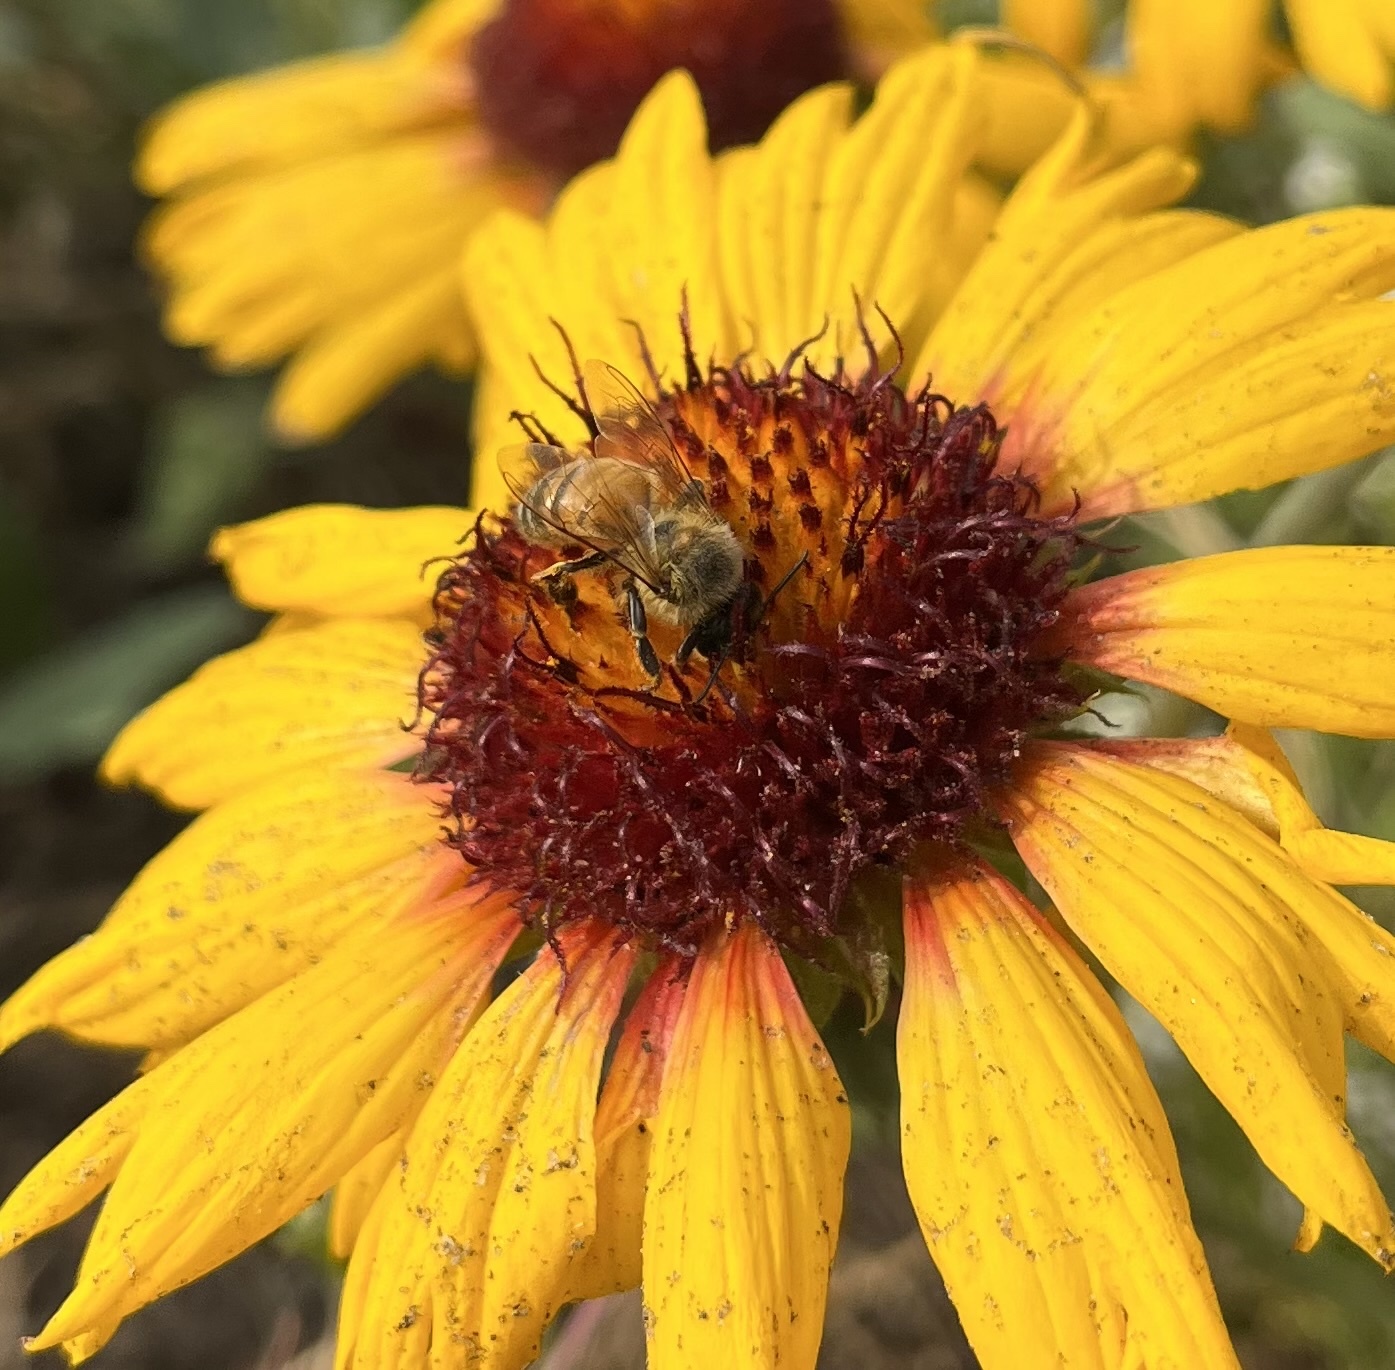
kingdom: Animalia
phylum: Arthropoda
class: Insecta
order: Hymenoptera
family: Apidae
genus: Apis
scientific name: Apis mellifera
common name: Honey bee
